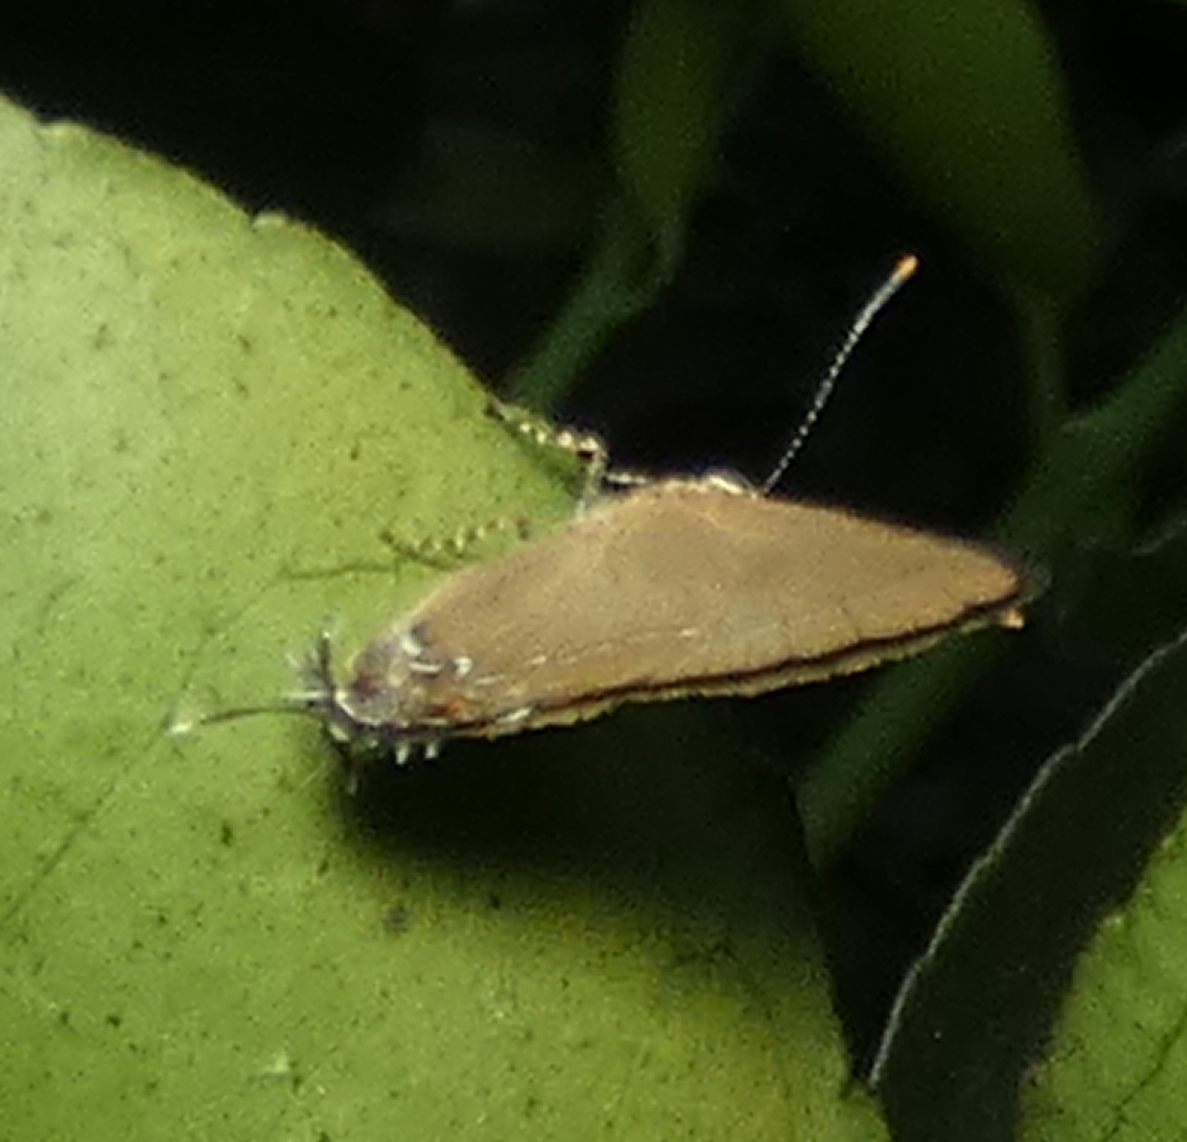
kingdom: Animalia
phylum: Arthropoda
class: Insecta
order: Lepidoptera
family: Lycaenidae
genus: Ziegleria
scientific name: Ziegleria hesperitis
